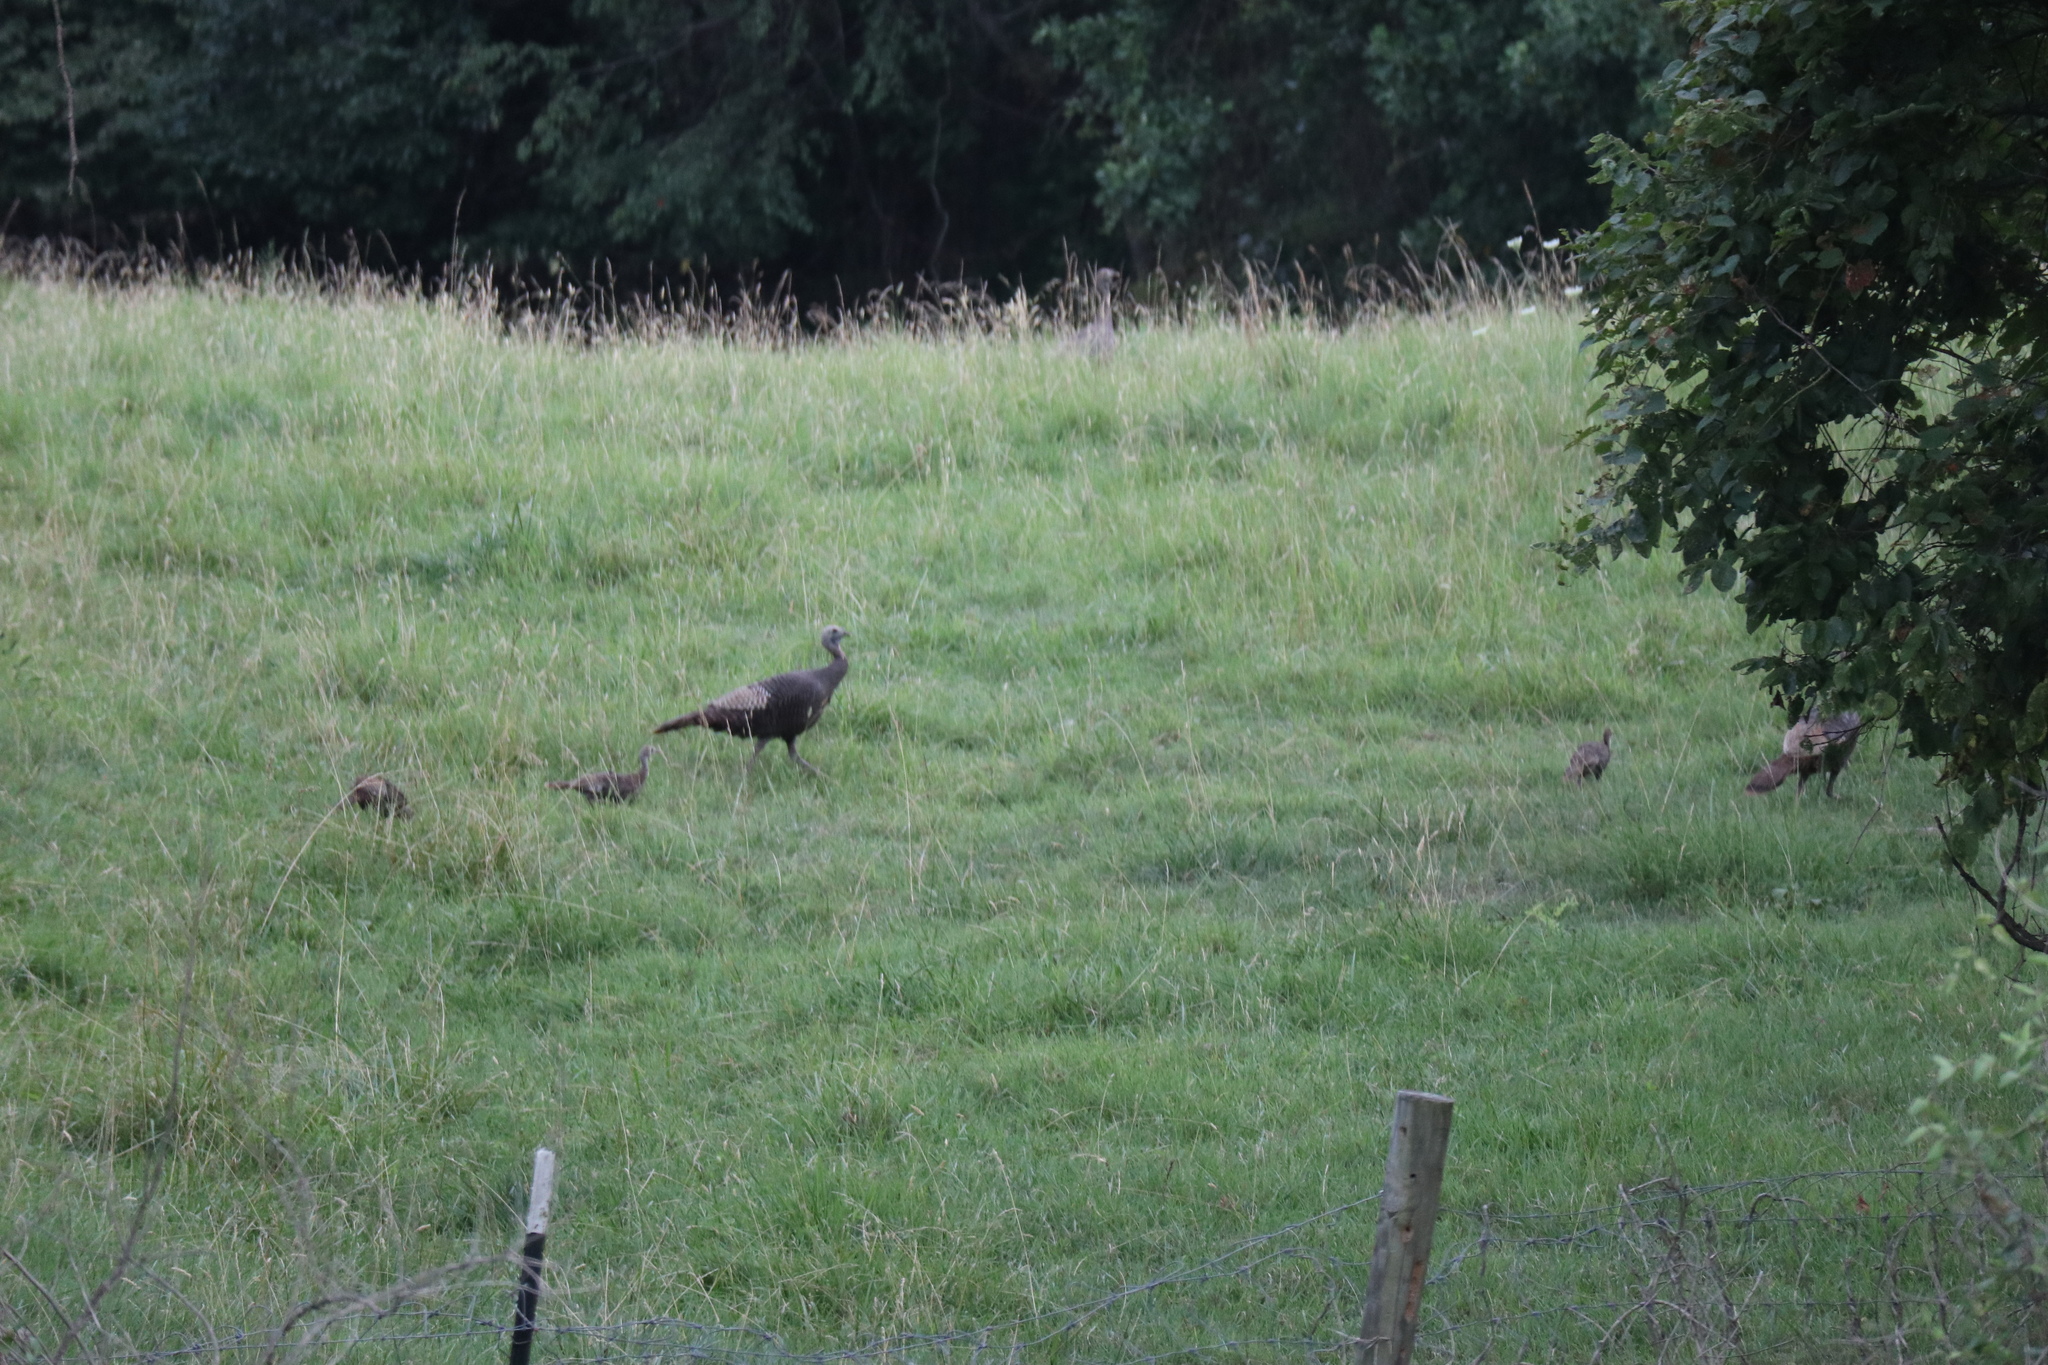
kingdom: Animalia
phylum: Chordata
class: Aves
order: Galliformes
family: Phasianidae
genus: Meleagris
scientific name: Meleagris gallopavo
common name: Wild turkey
